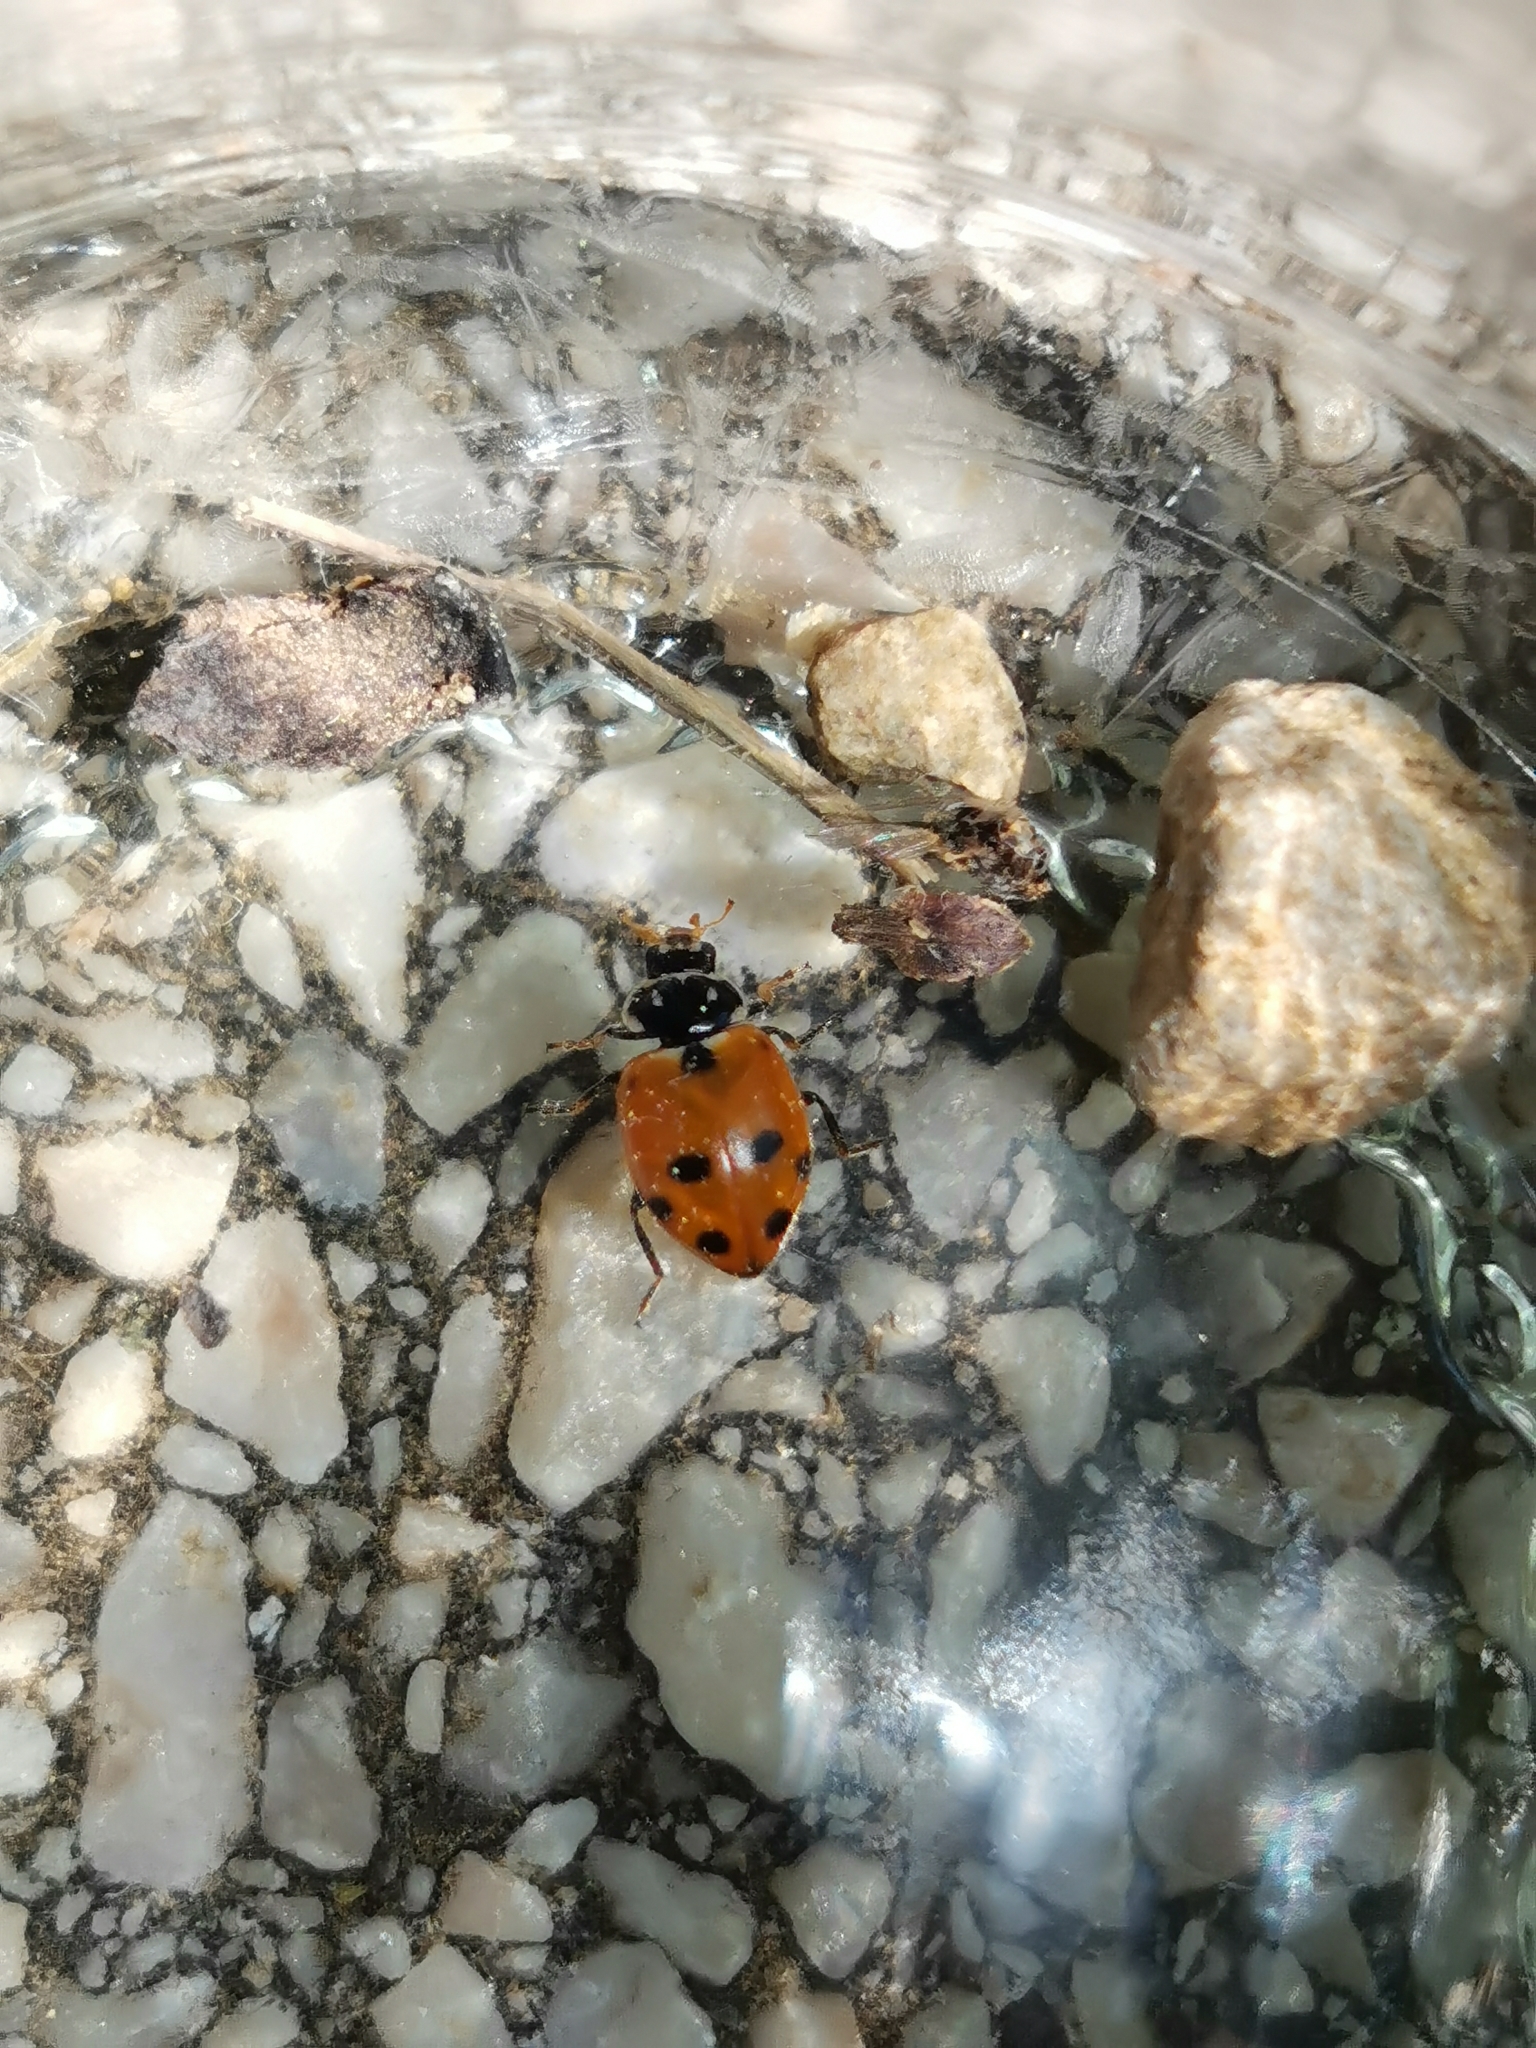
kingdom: Animalia
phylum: Arthropoda
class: Insecta
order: Coleoptera
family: Coccinellidae
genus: Hippodamia
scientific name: Hippodamia variegata
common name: Ladybird beetle
